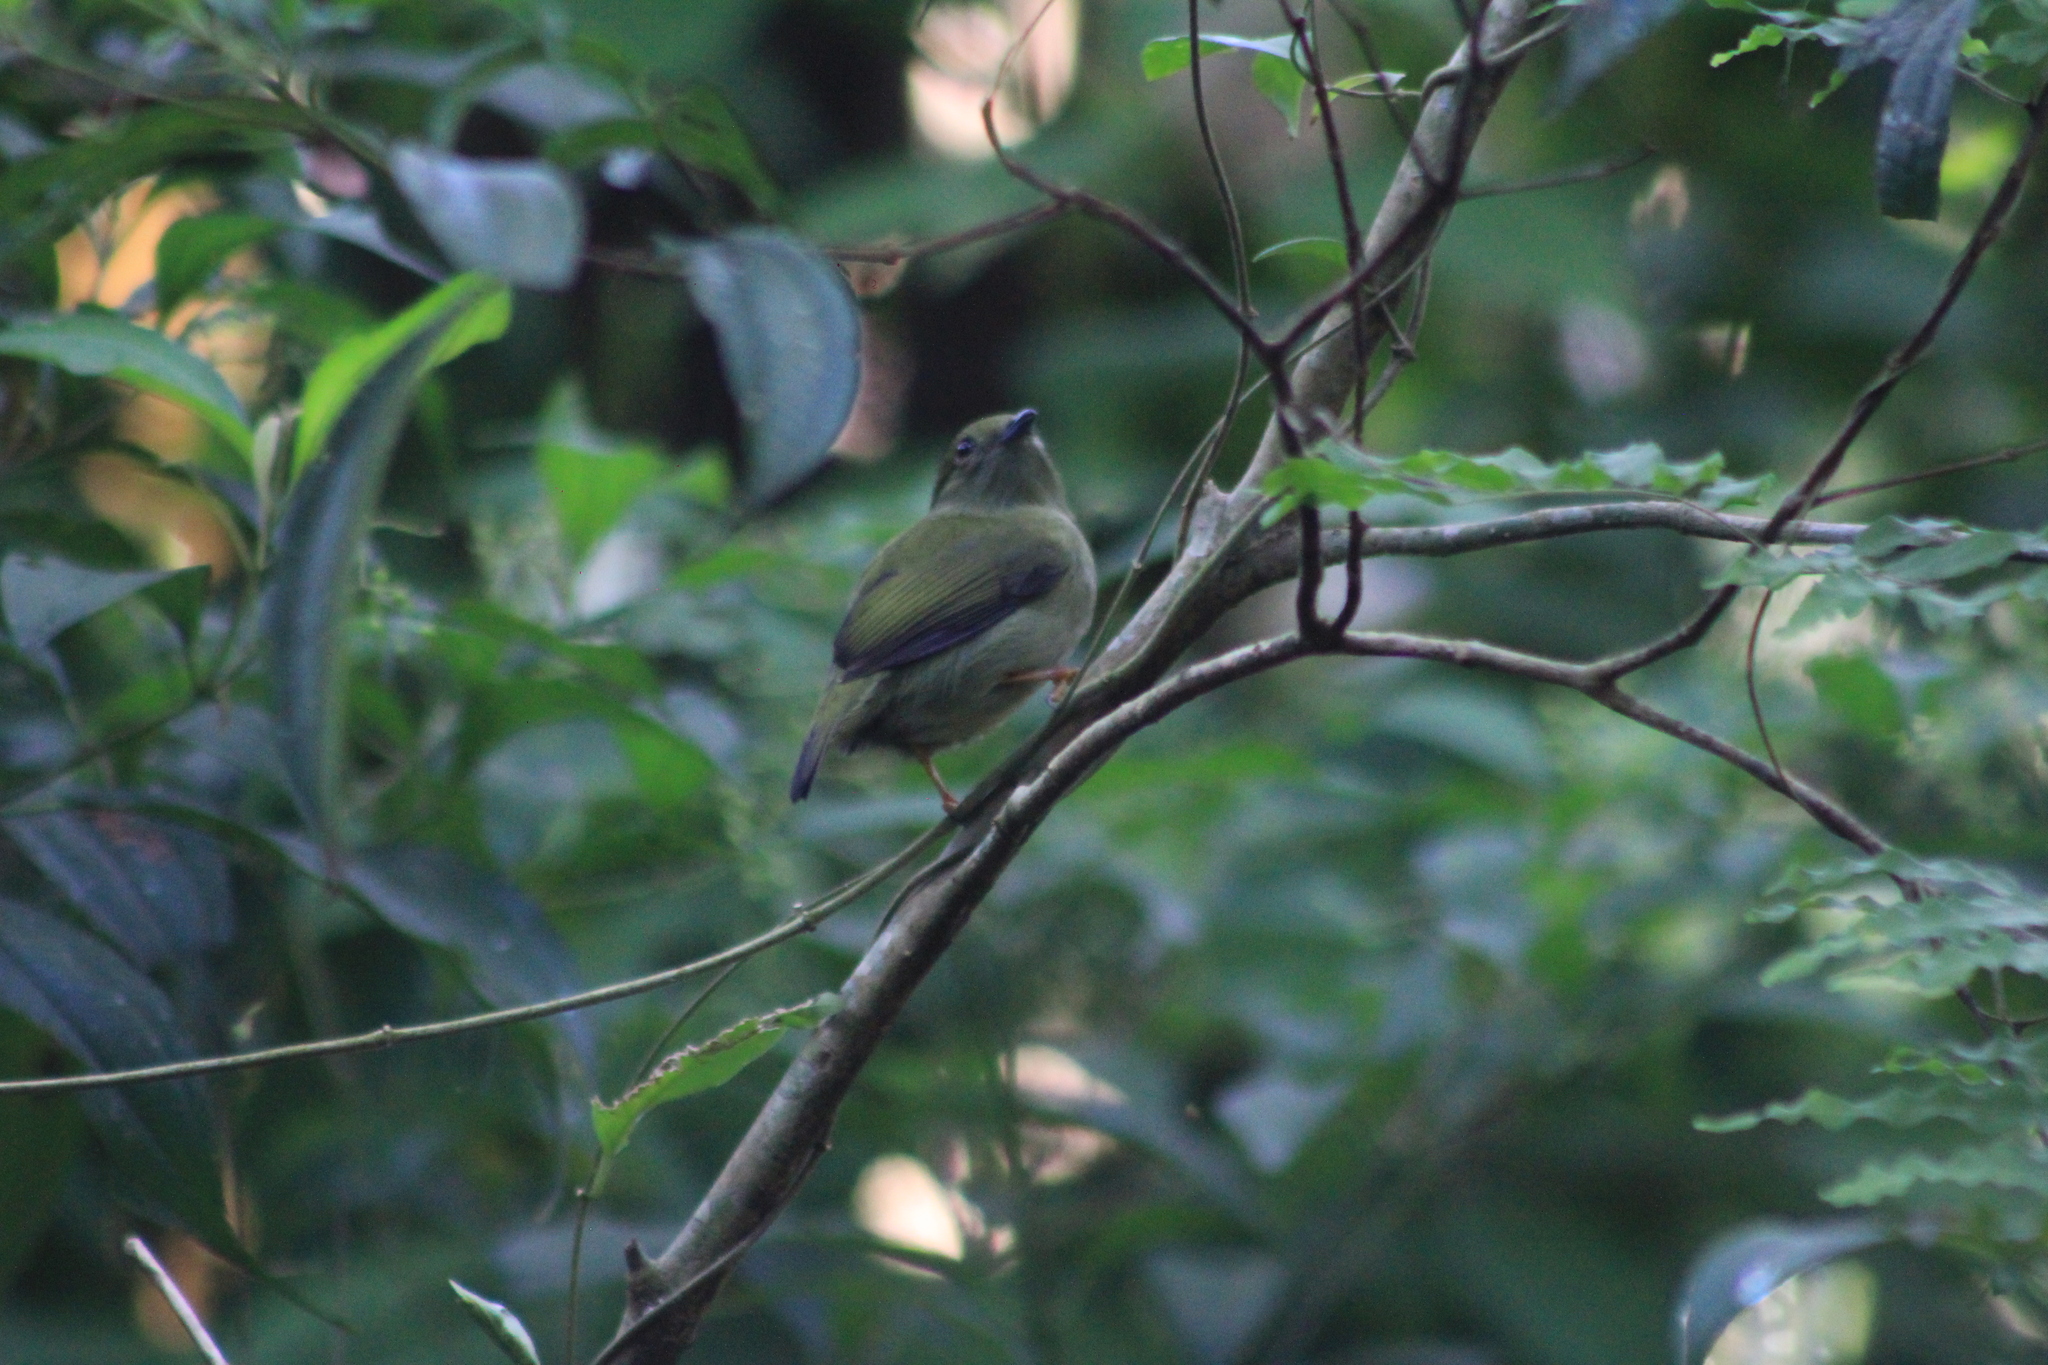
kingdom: Animalia
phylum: Chordata
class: Aves
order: Passeriformes
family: Pipridae
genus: Manacus
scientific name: Manacus manacus
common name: White-bearded manakin
